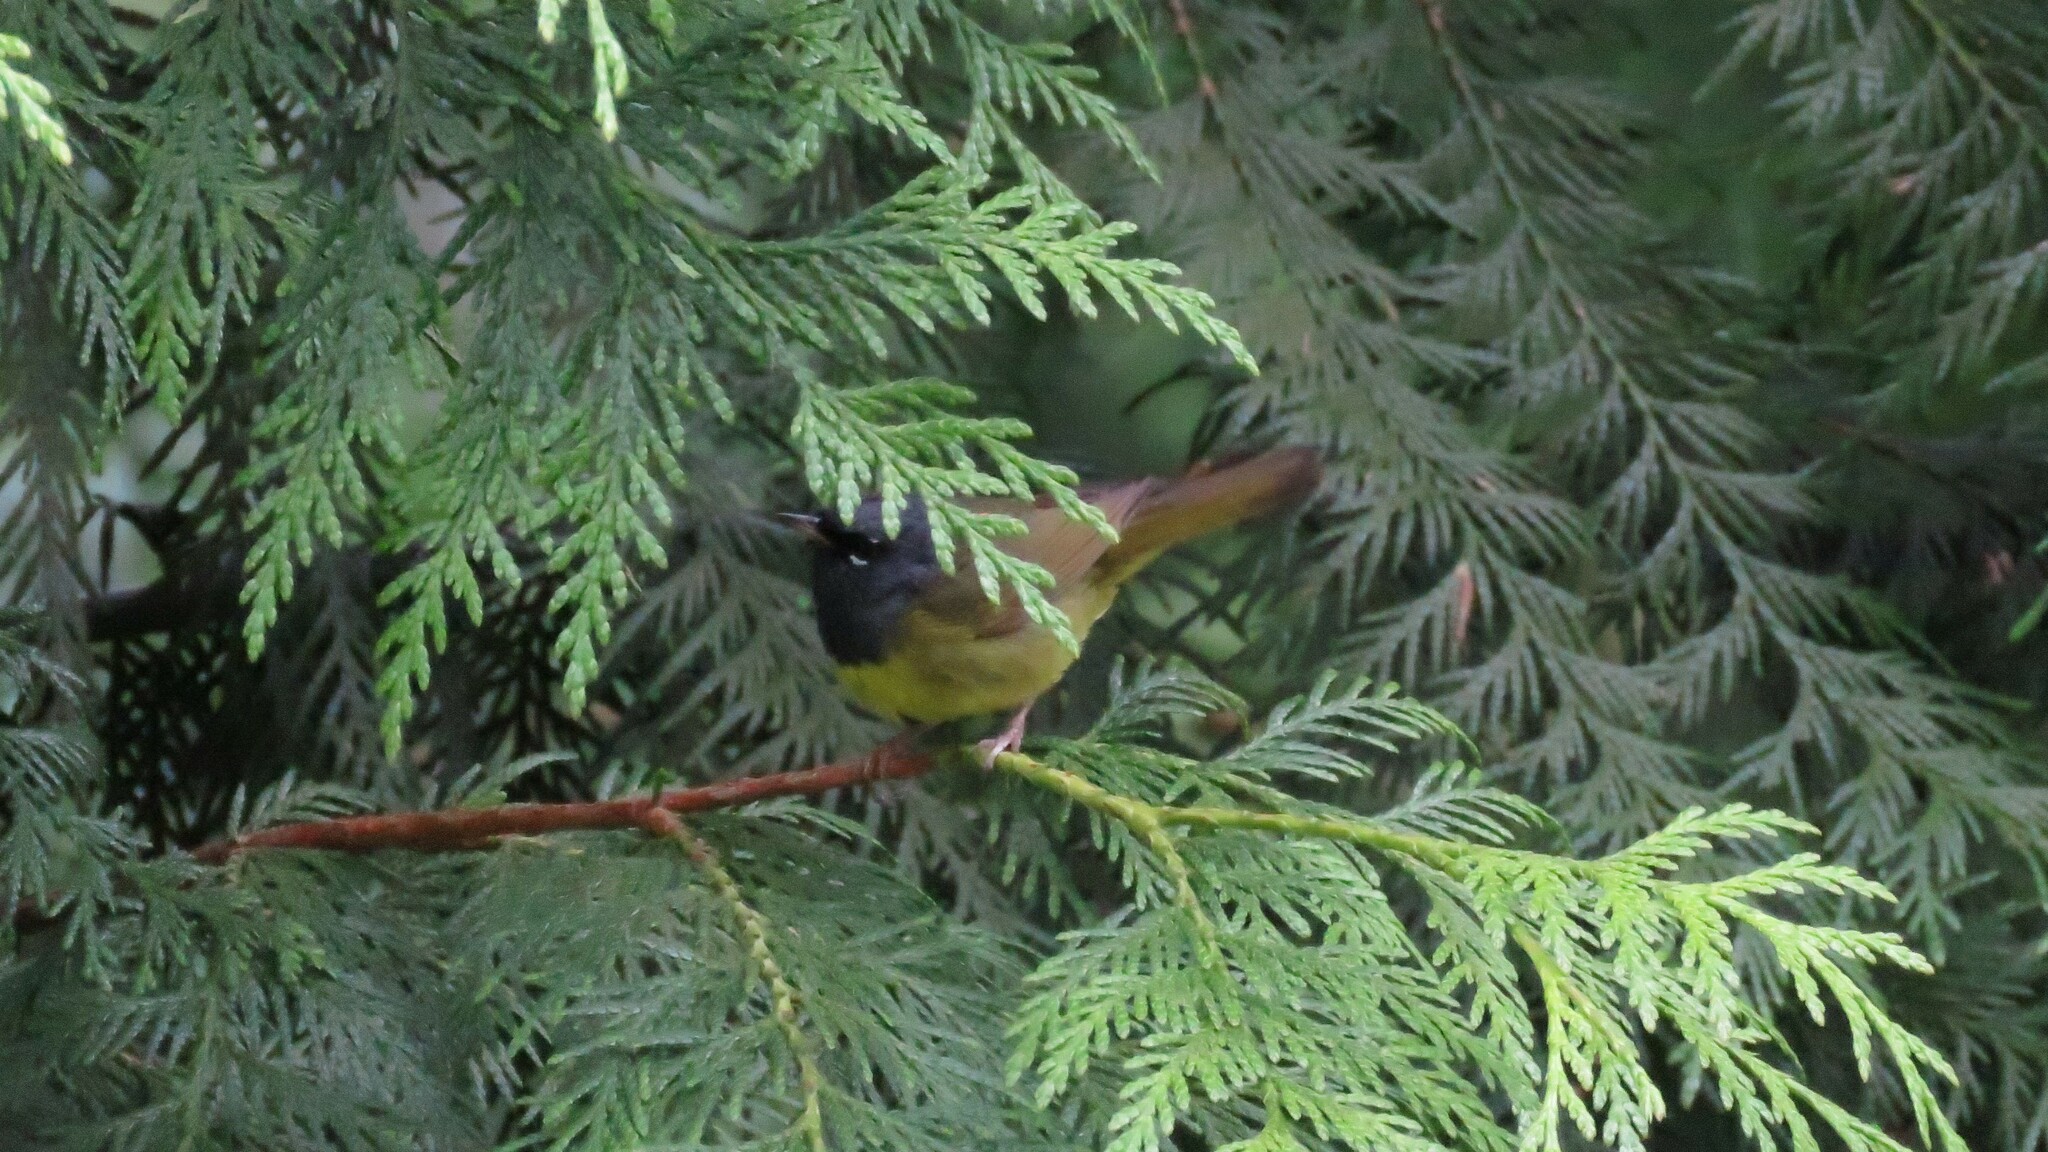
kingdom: Animalia
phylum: Chordata
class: Aves
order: Passeriformes
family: Parulidae
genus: Geothlypis
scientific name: Geothlypis tolmiei
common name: Macgillivray's warbler
